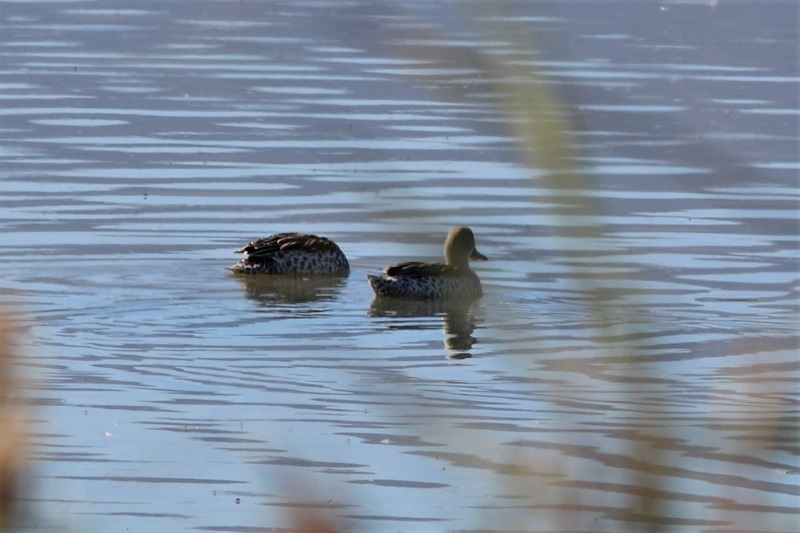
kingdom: Animalia
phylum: Chordata
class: Aves
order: Anseriformes
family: Anatidae
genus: Anas
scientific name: Anas capensis
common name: Cape teal
